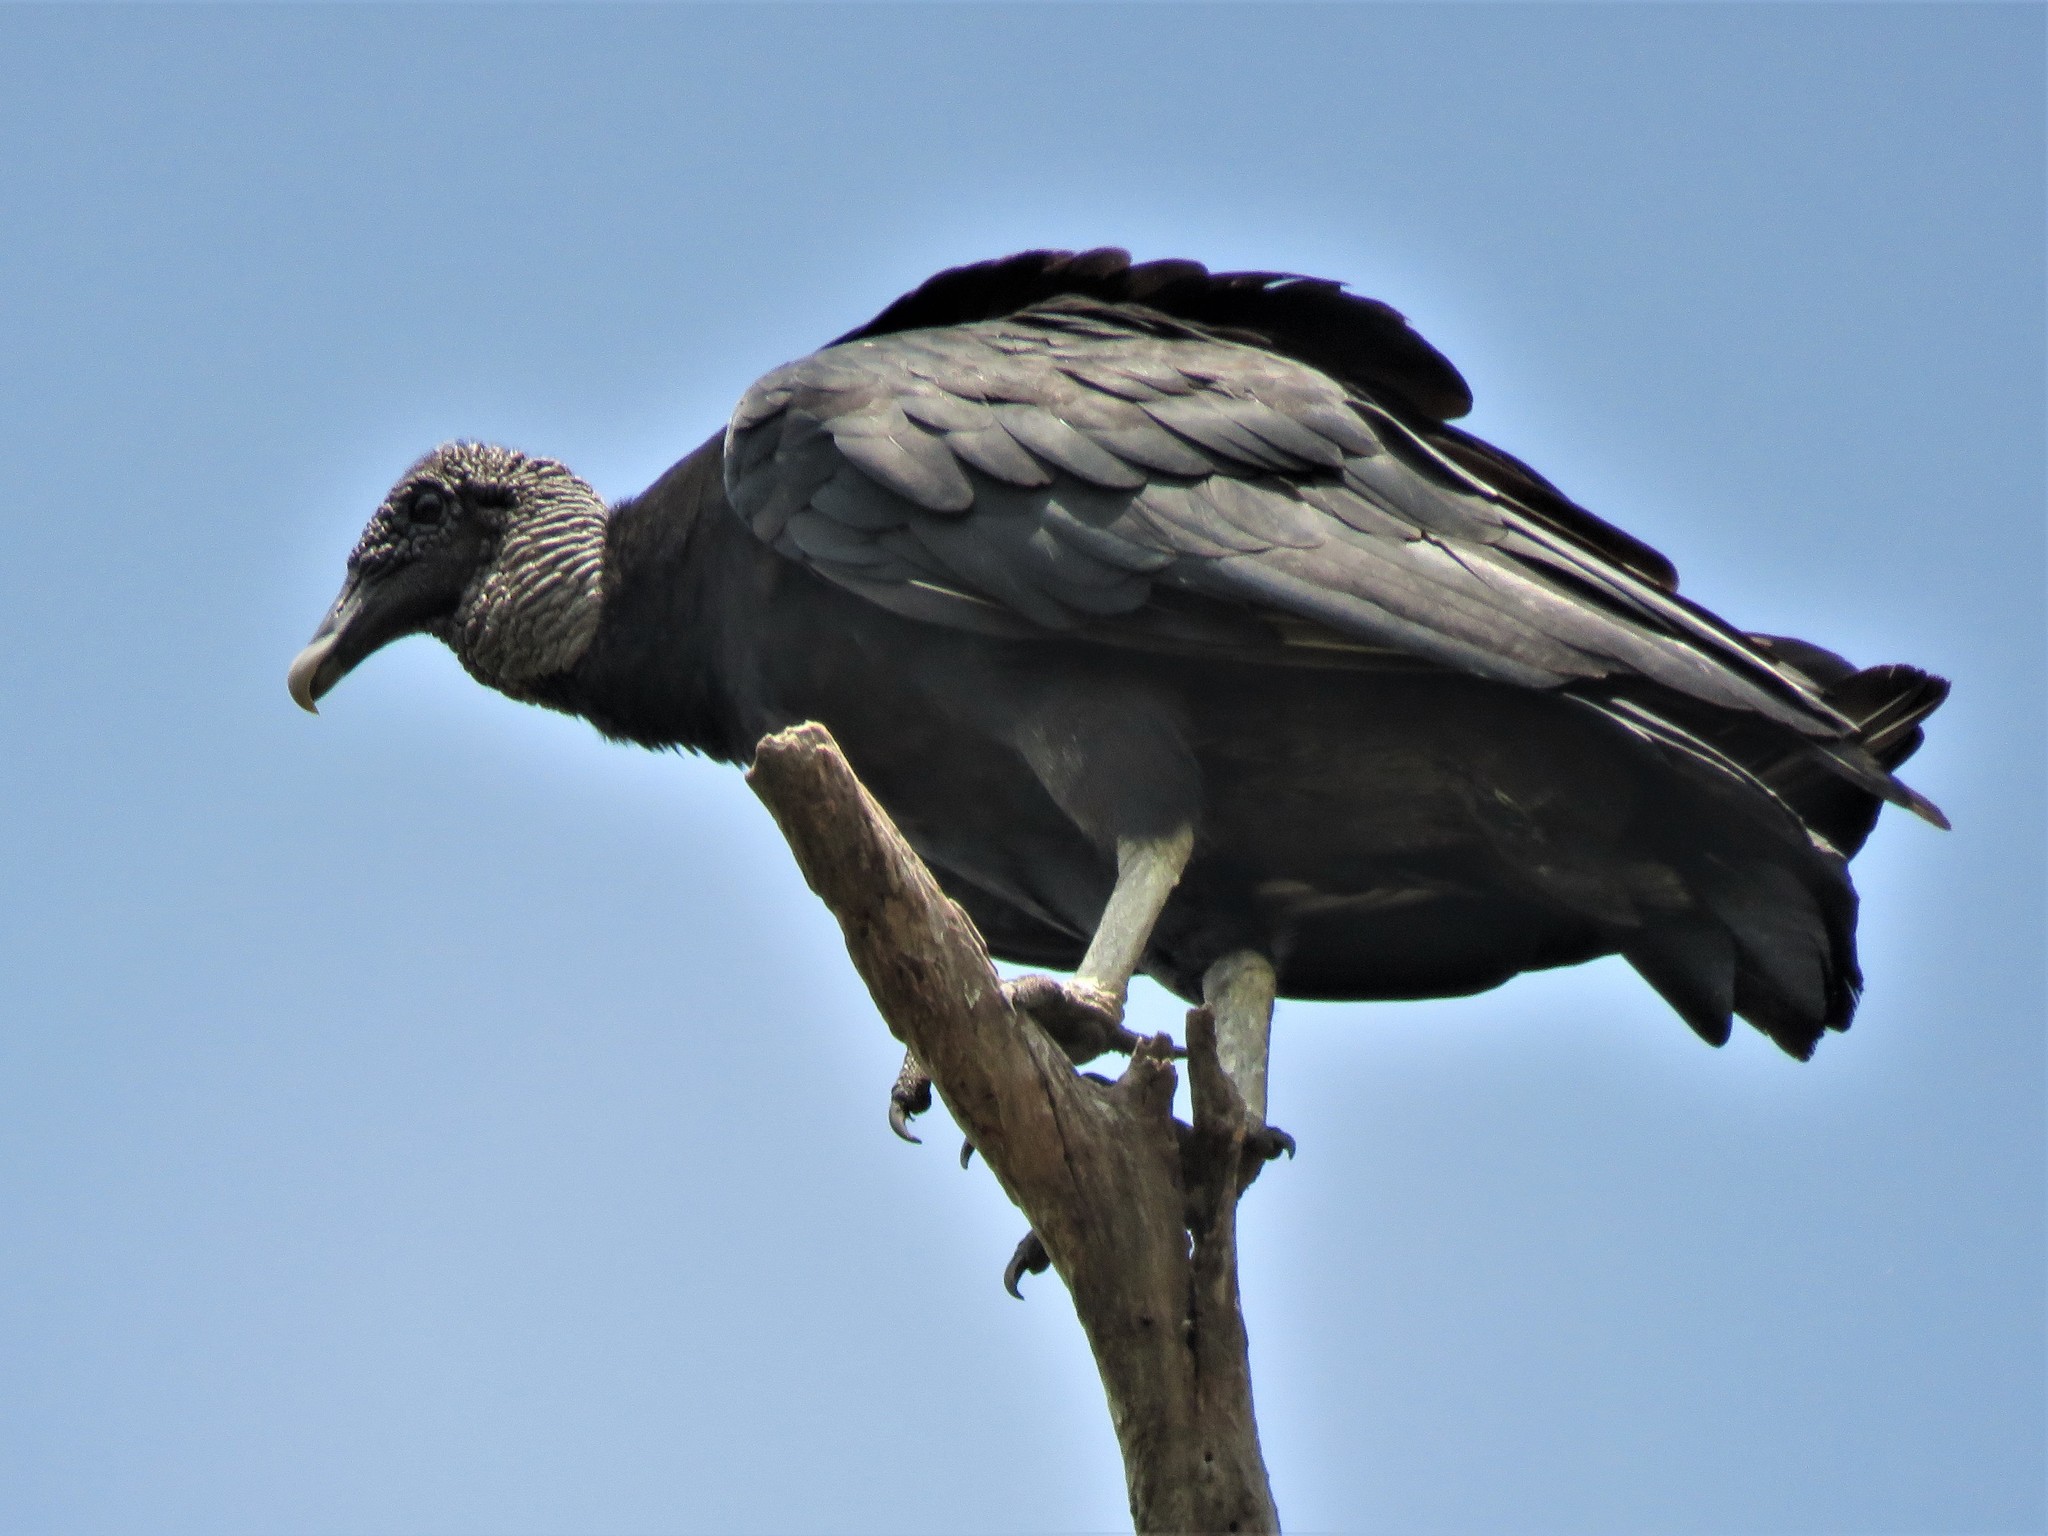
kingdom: Animalia
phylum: Chordata
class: Aves
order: Accipitriformes
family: Cathartidae
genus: Coragyps
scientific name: Coragyps atratus
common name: Black vulture
